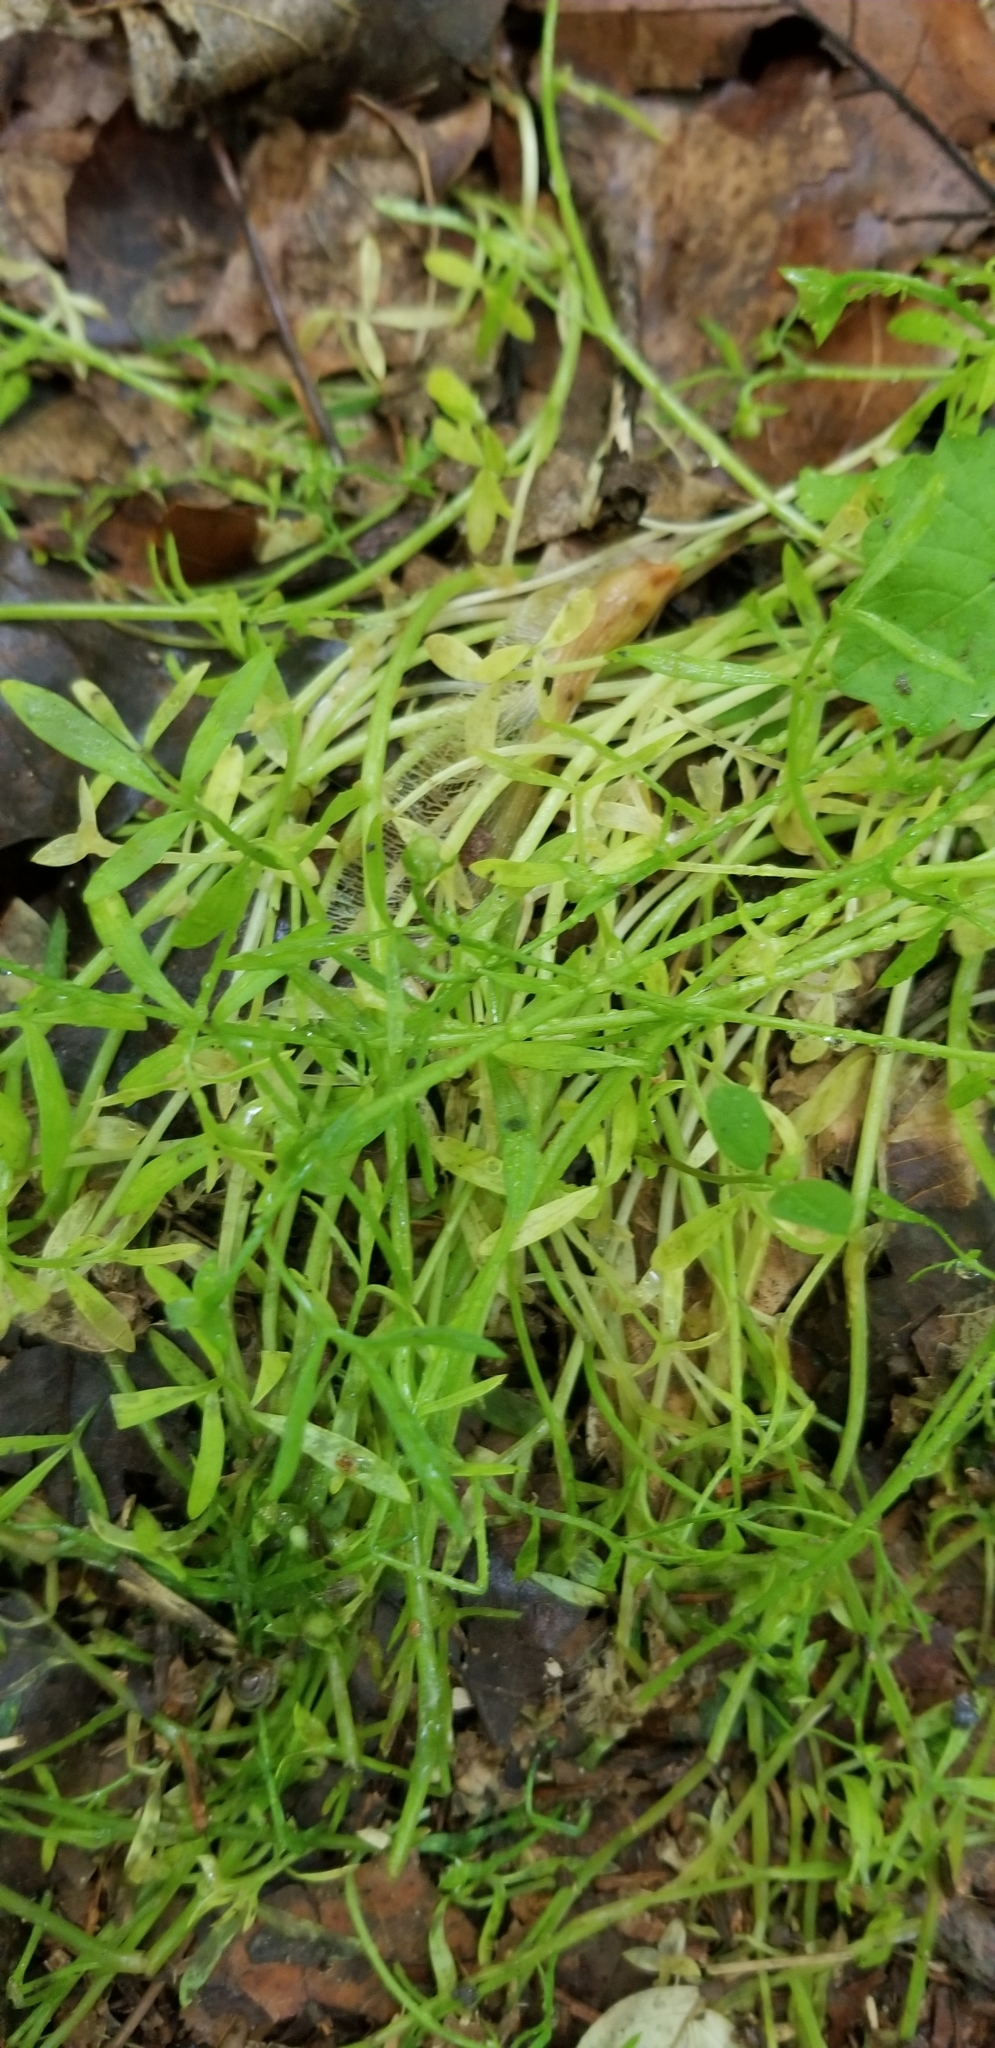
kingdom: Plantae
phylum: Tracheophyta
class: Magnoliopsida
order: Brassicales
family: Limnanthaceae
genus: Floerkea
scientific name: Floerkea proserpinacoides
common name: False mermaid
